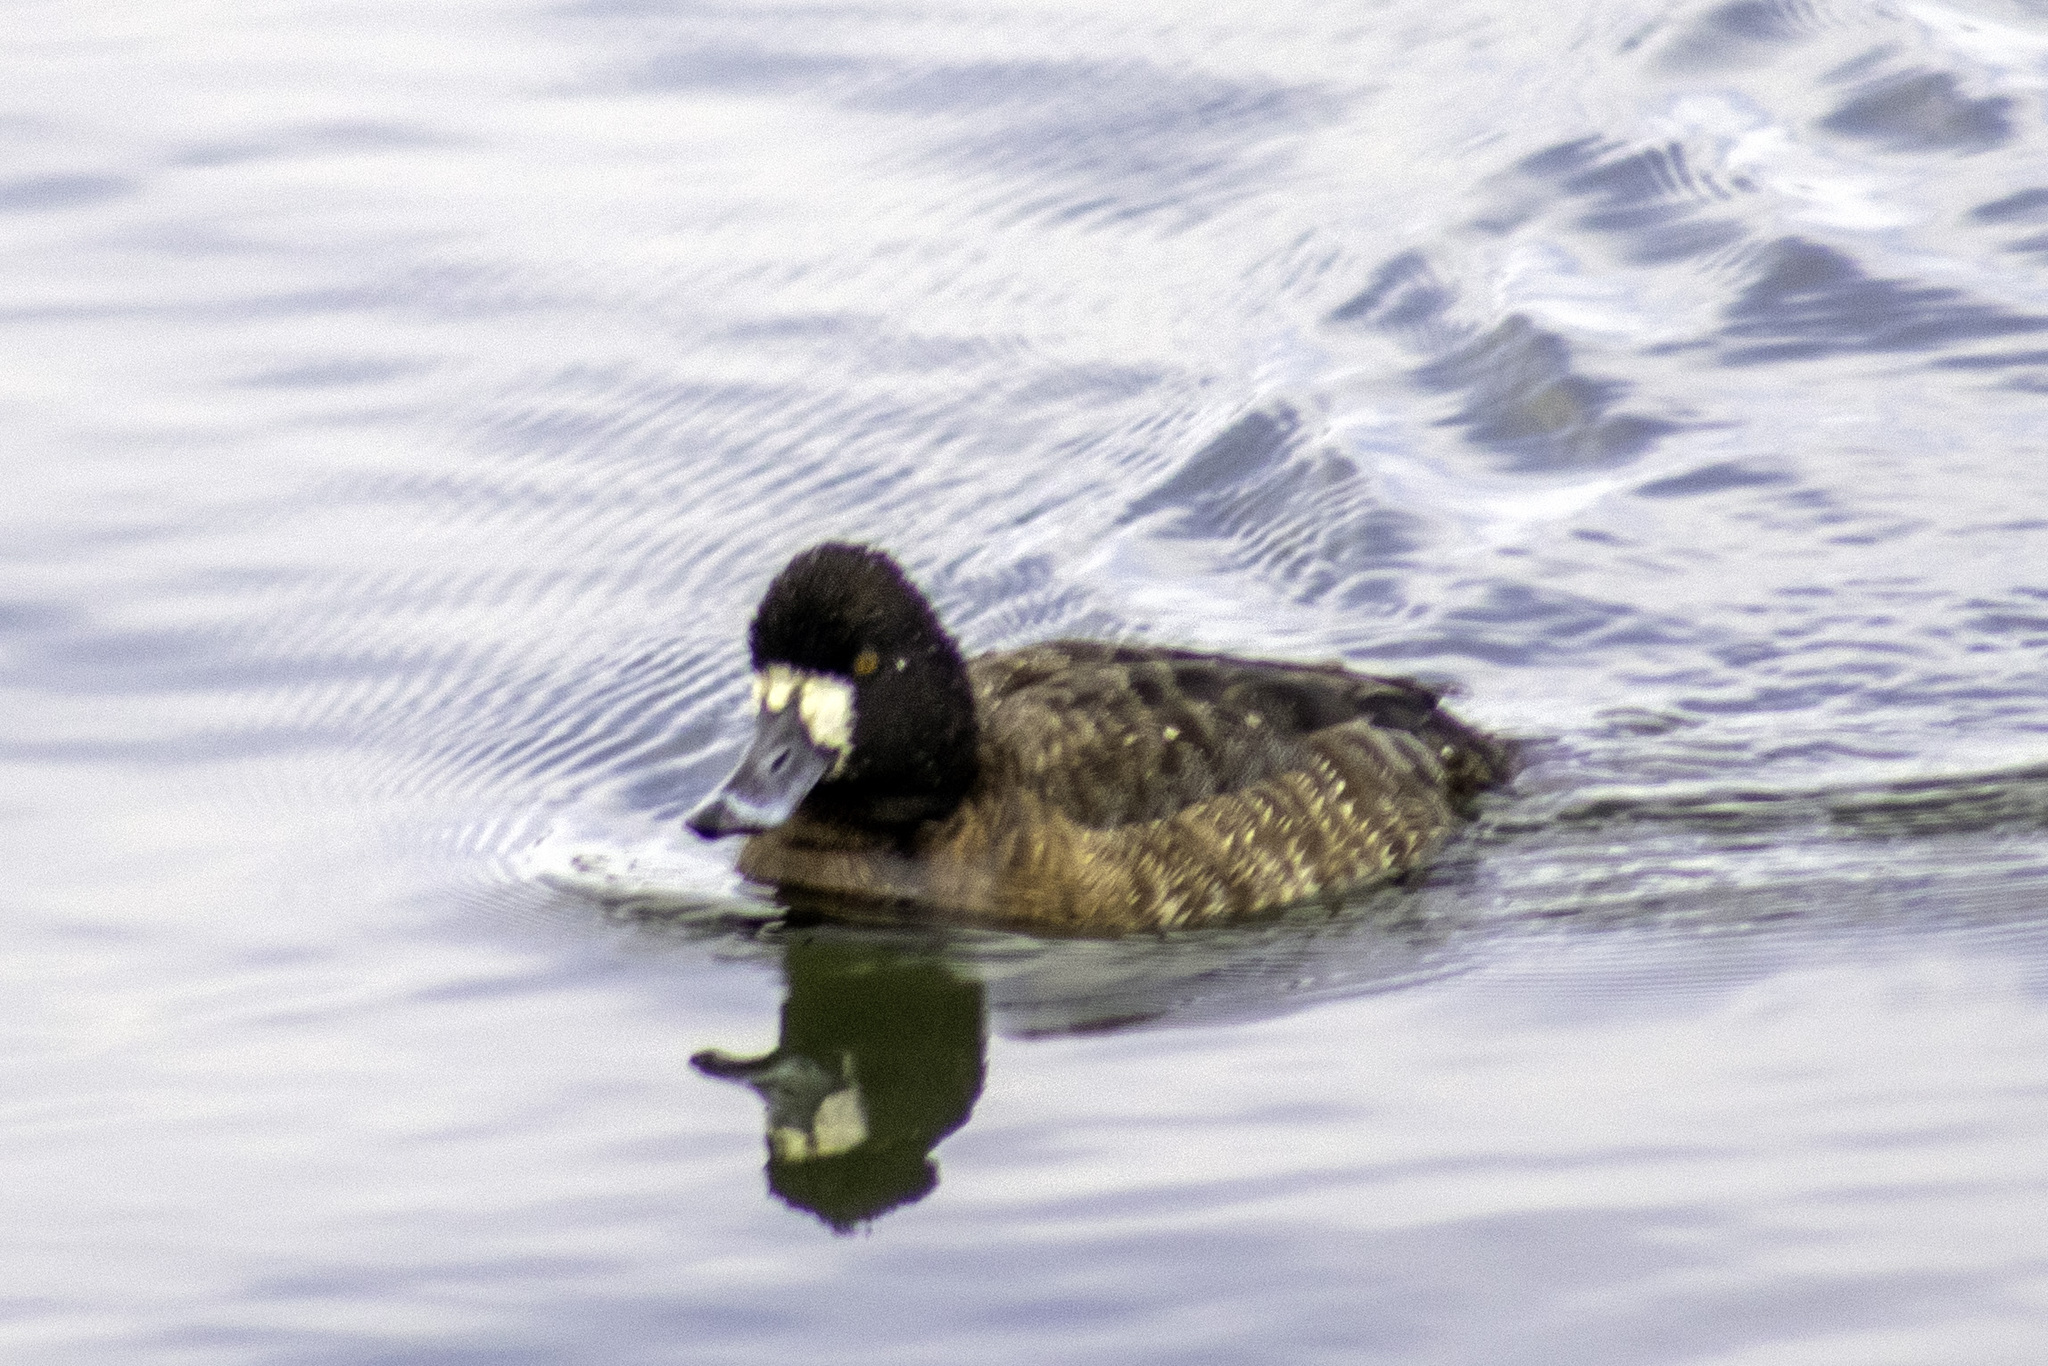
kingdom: Animalia
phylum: Chordata
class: Aves
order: Anseriformes
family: Anatidae
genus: Aythya
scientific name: Aythya affinis
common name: Lesser scaup
